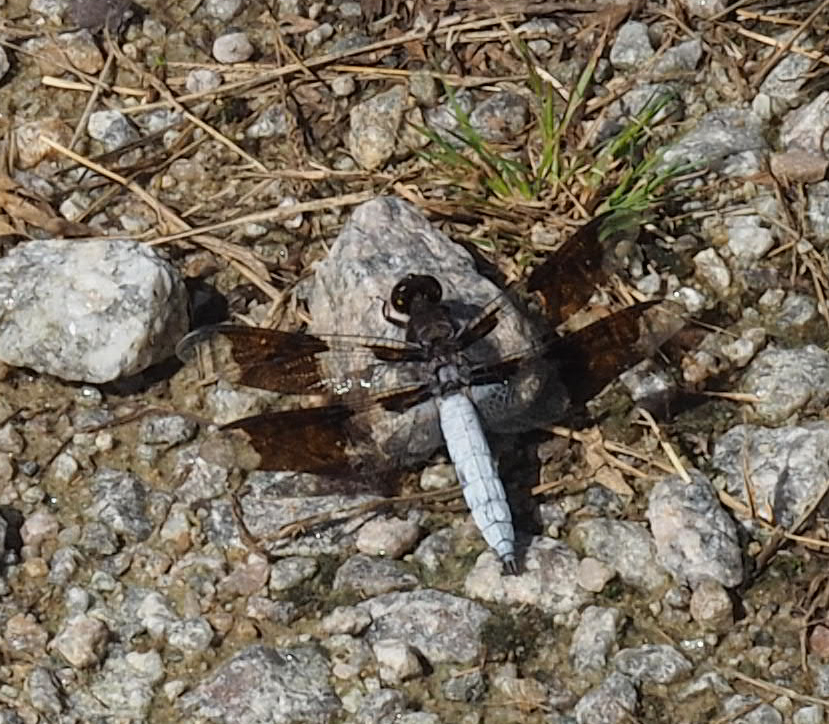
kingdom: Animalia
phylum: Arthropoda
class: Insecta
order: Odonata
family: Libellulidae
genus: Plathemis
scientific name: Plathemis lydia
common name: Common whitetail
